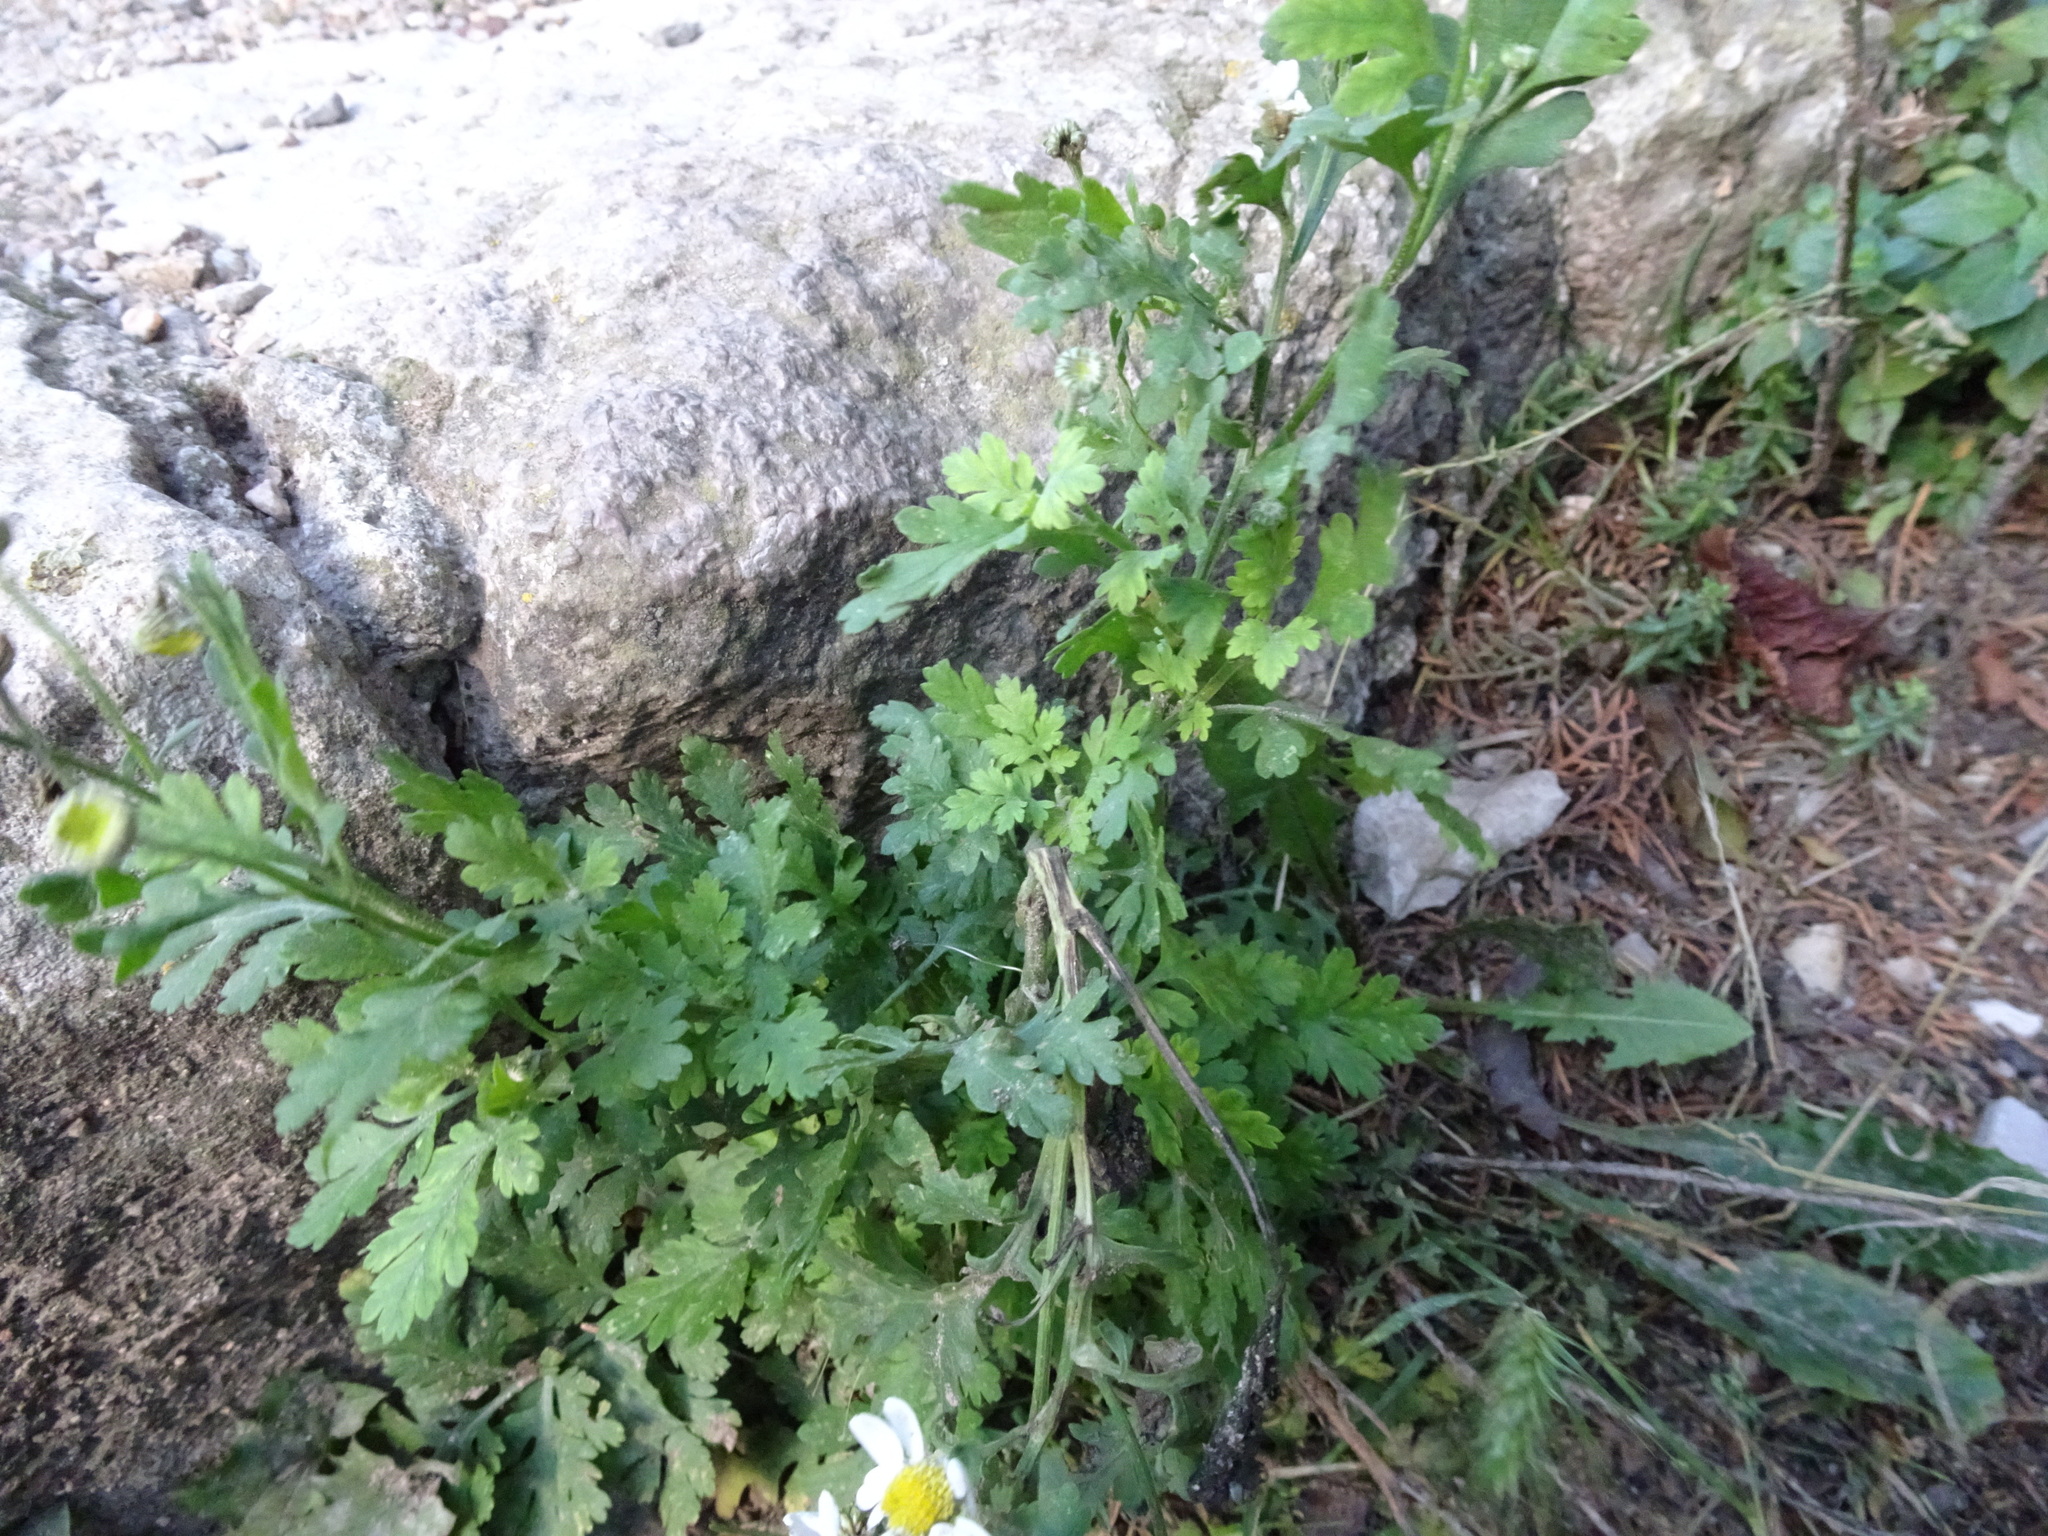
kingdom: Plantae
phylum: Tracheophyta
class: Magnoliopsida
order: Asterales
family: Asteraceae
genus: Tanacetum
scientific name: Tanacetum parthenium
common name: Feverfew
